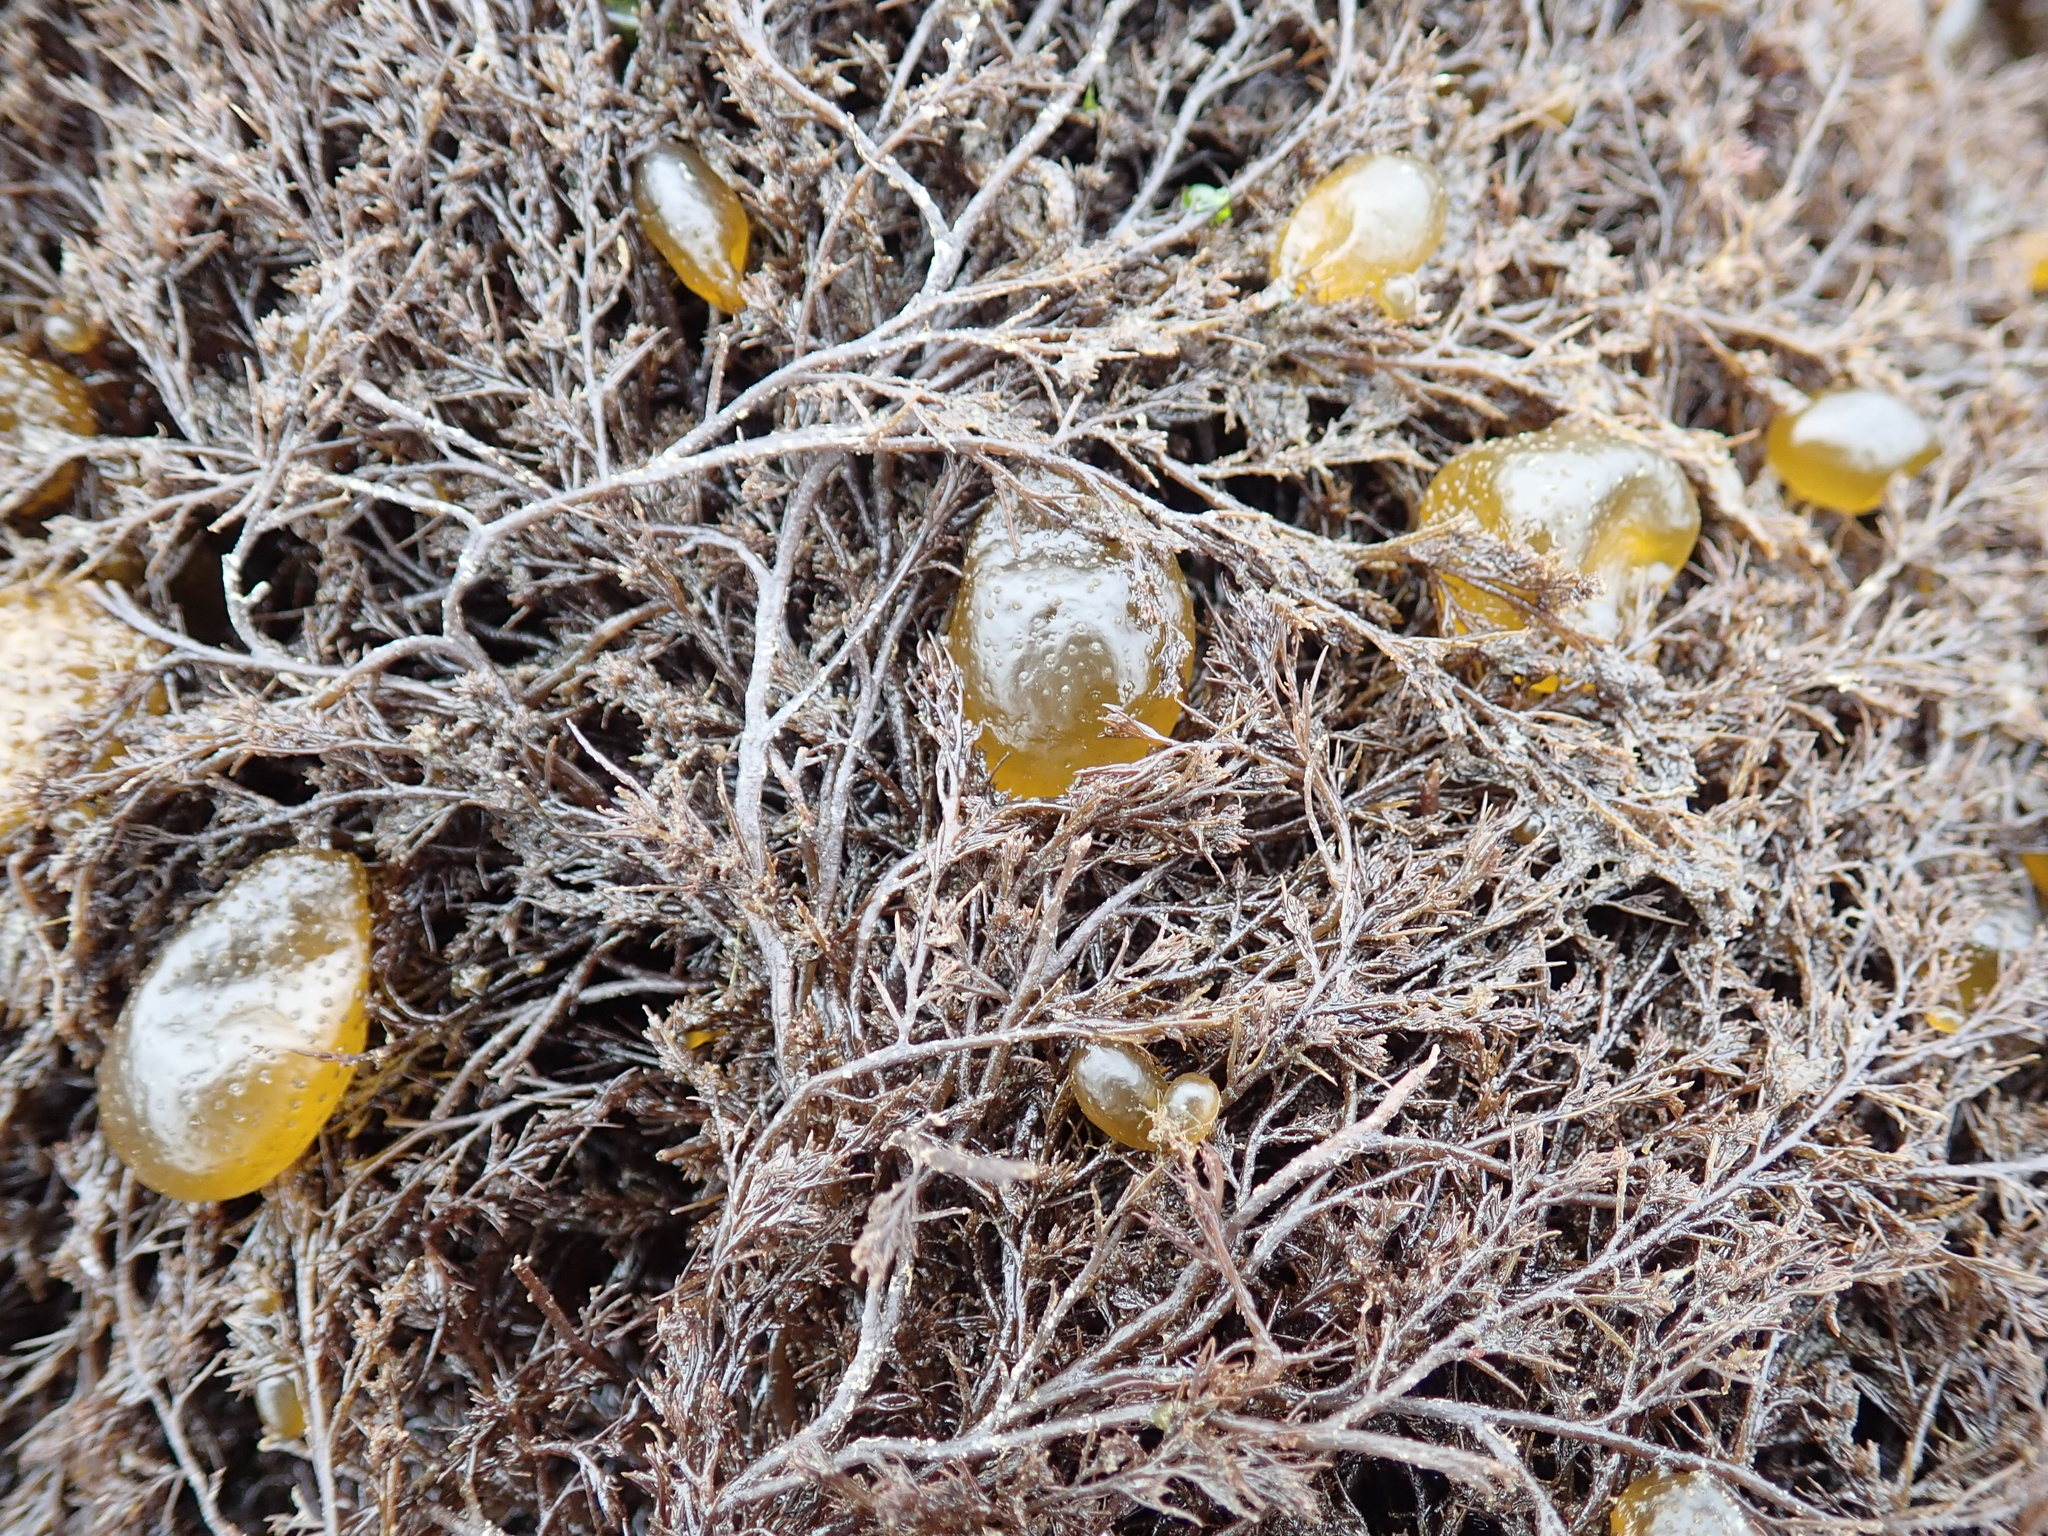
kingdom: Chromista
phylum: Ochrophyta
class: Phaeophyceae
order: Dictyosiphonales
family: Punctariaceae
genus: Soranthera
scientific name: Soranthera ulvoidea
